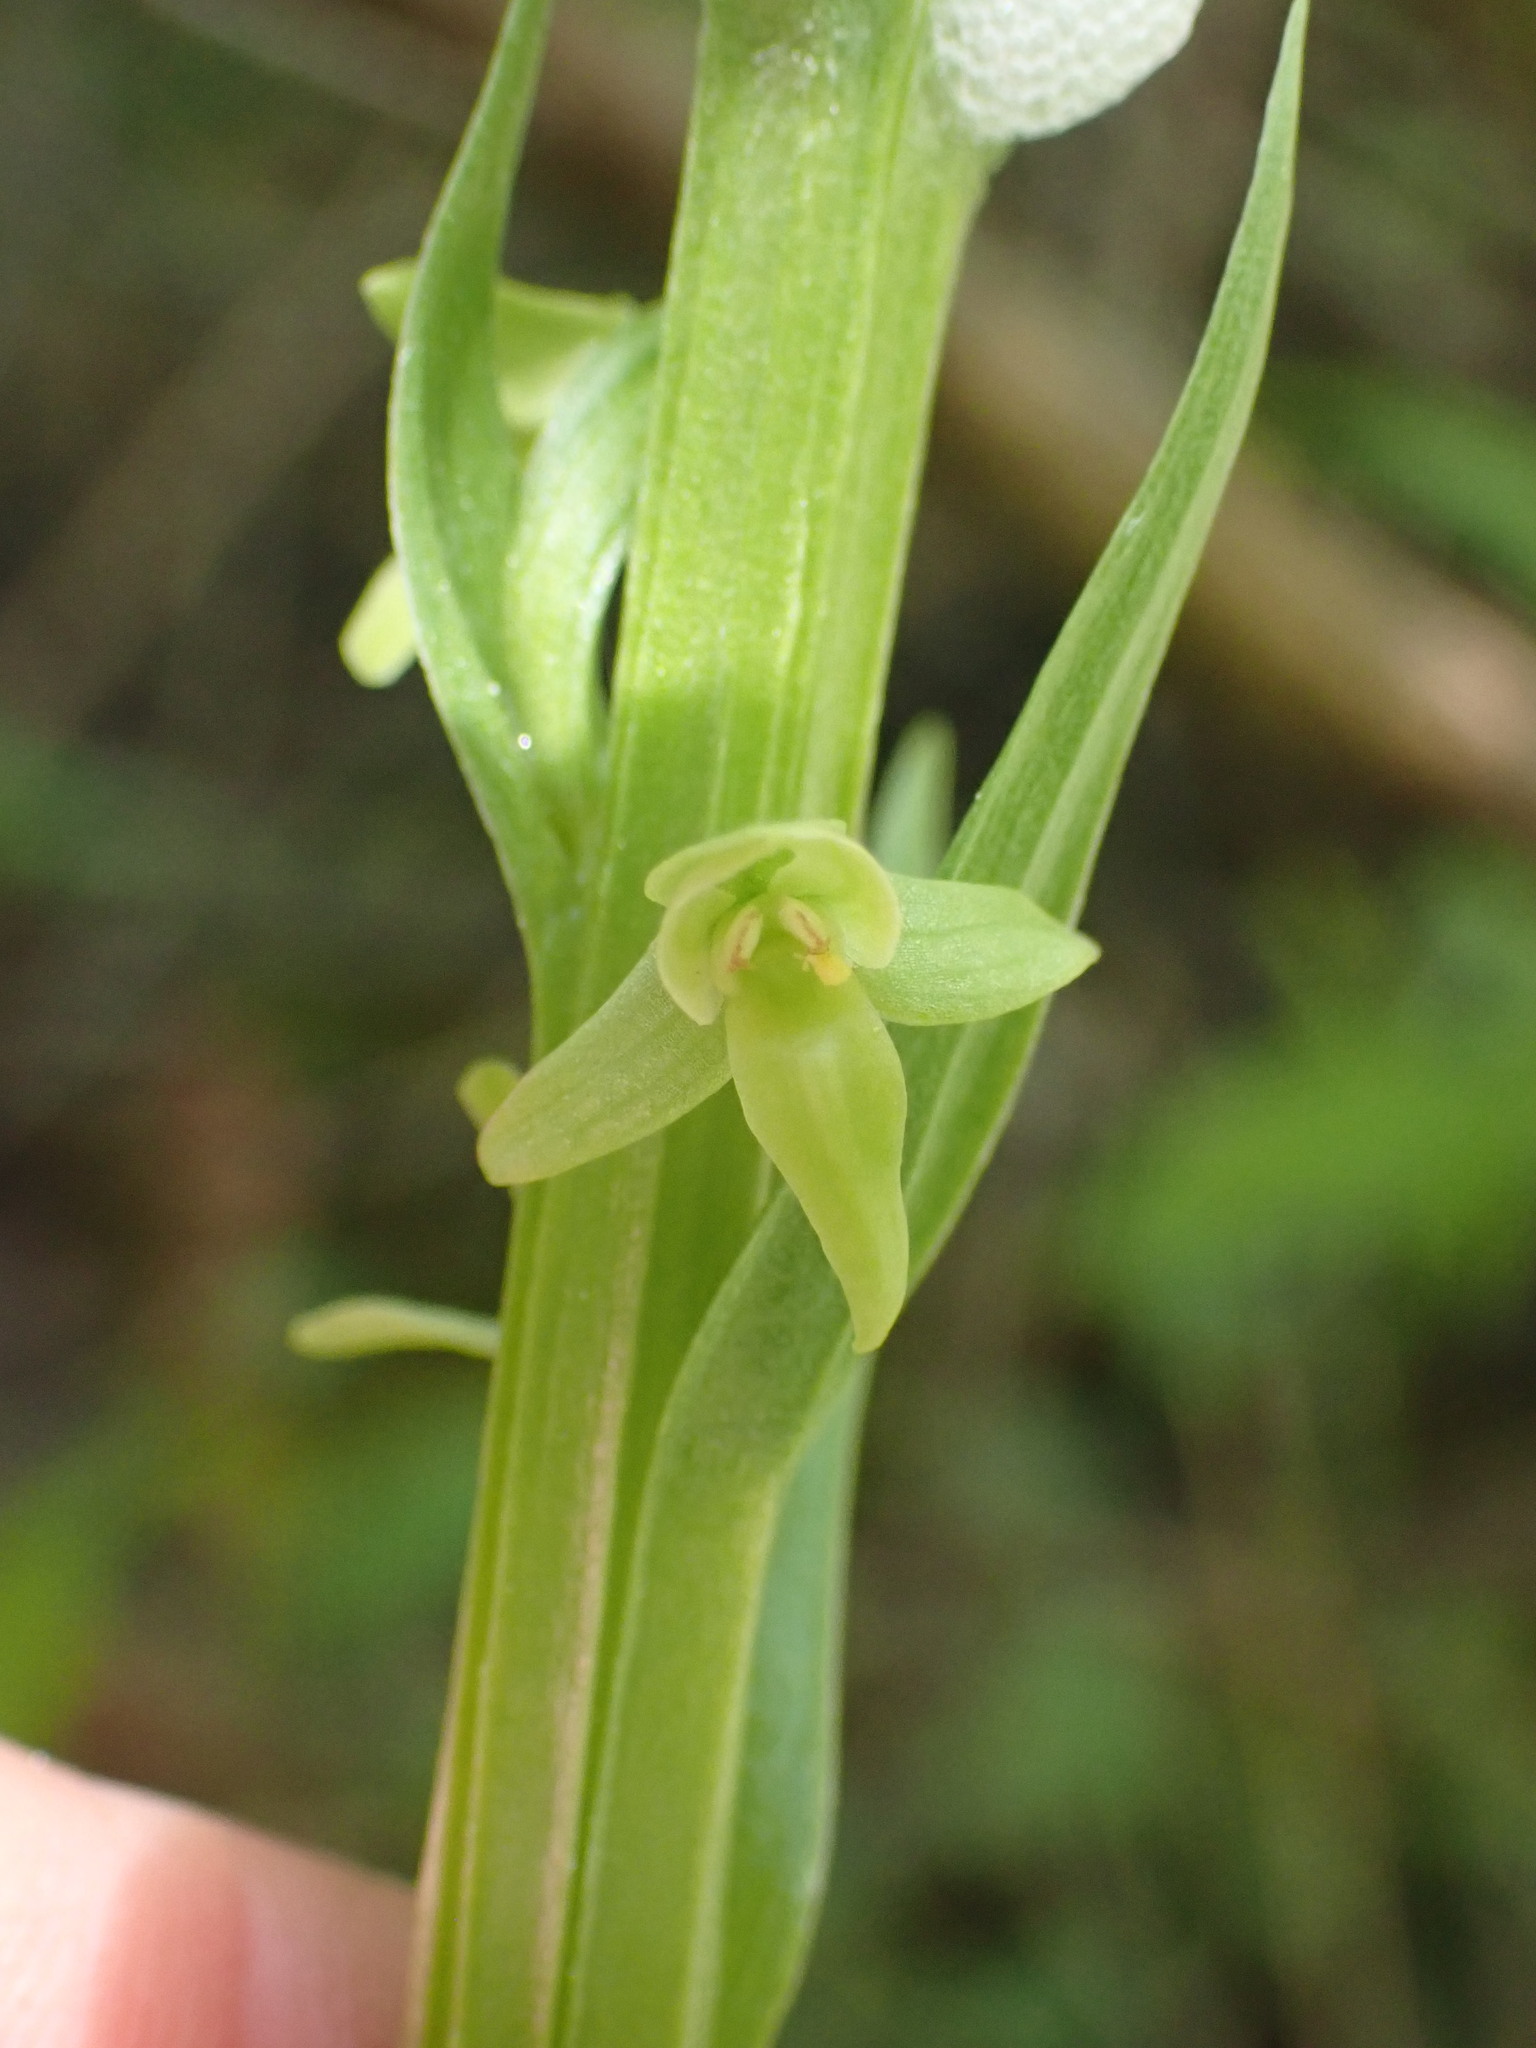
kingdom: Plantae
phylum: Tracheophyta
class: Liliopsida
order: Asparagales
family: Orchidaceae
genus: Platanthera
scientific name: Platanthera huronensis
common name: Fragrant green orchid
